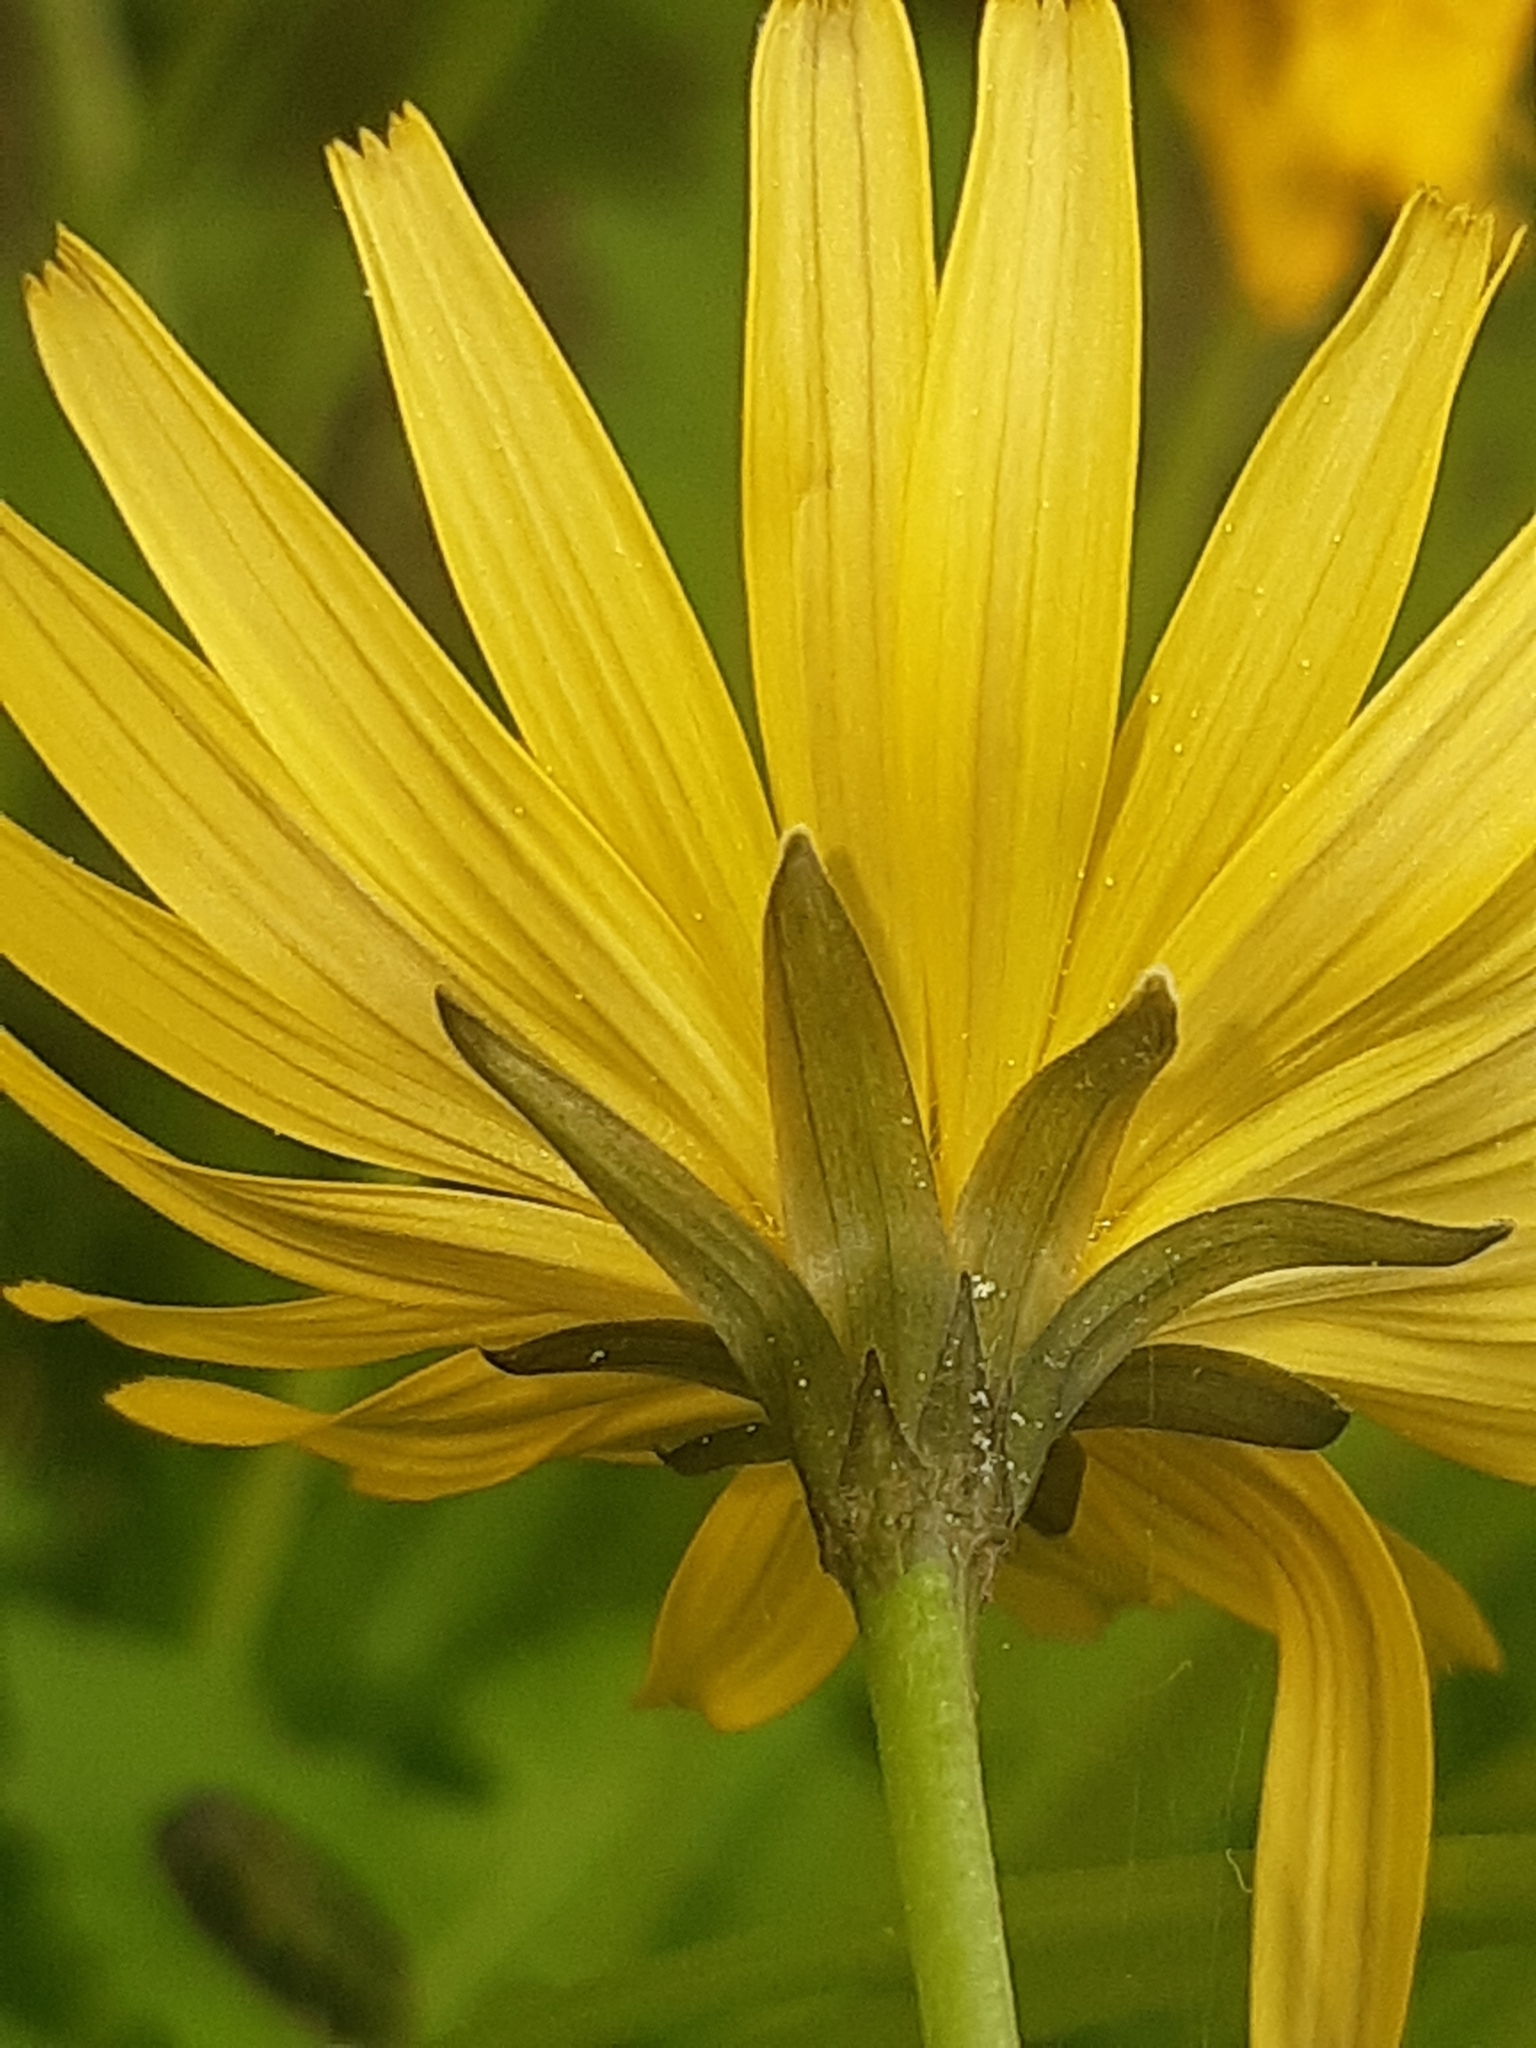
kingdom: Plantae
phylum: Tracheophyta
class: Magnoliopsida
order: Asterales
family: Asteraceae
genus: Aposeris
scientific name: Aposeris foetida
